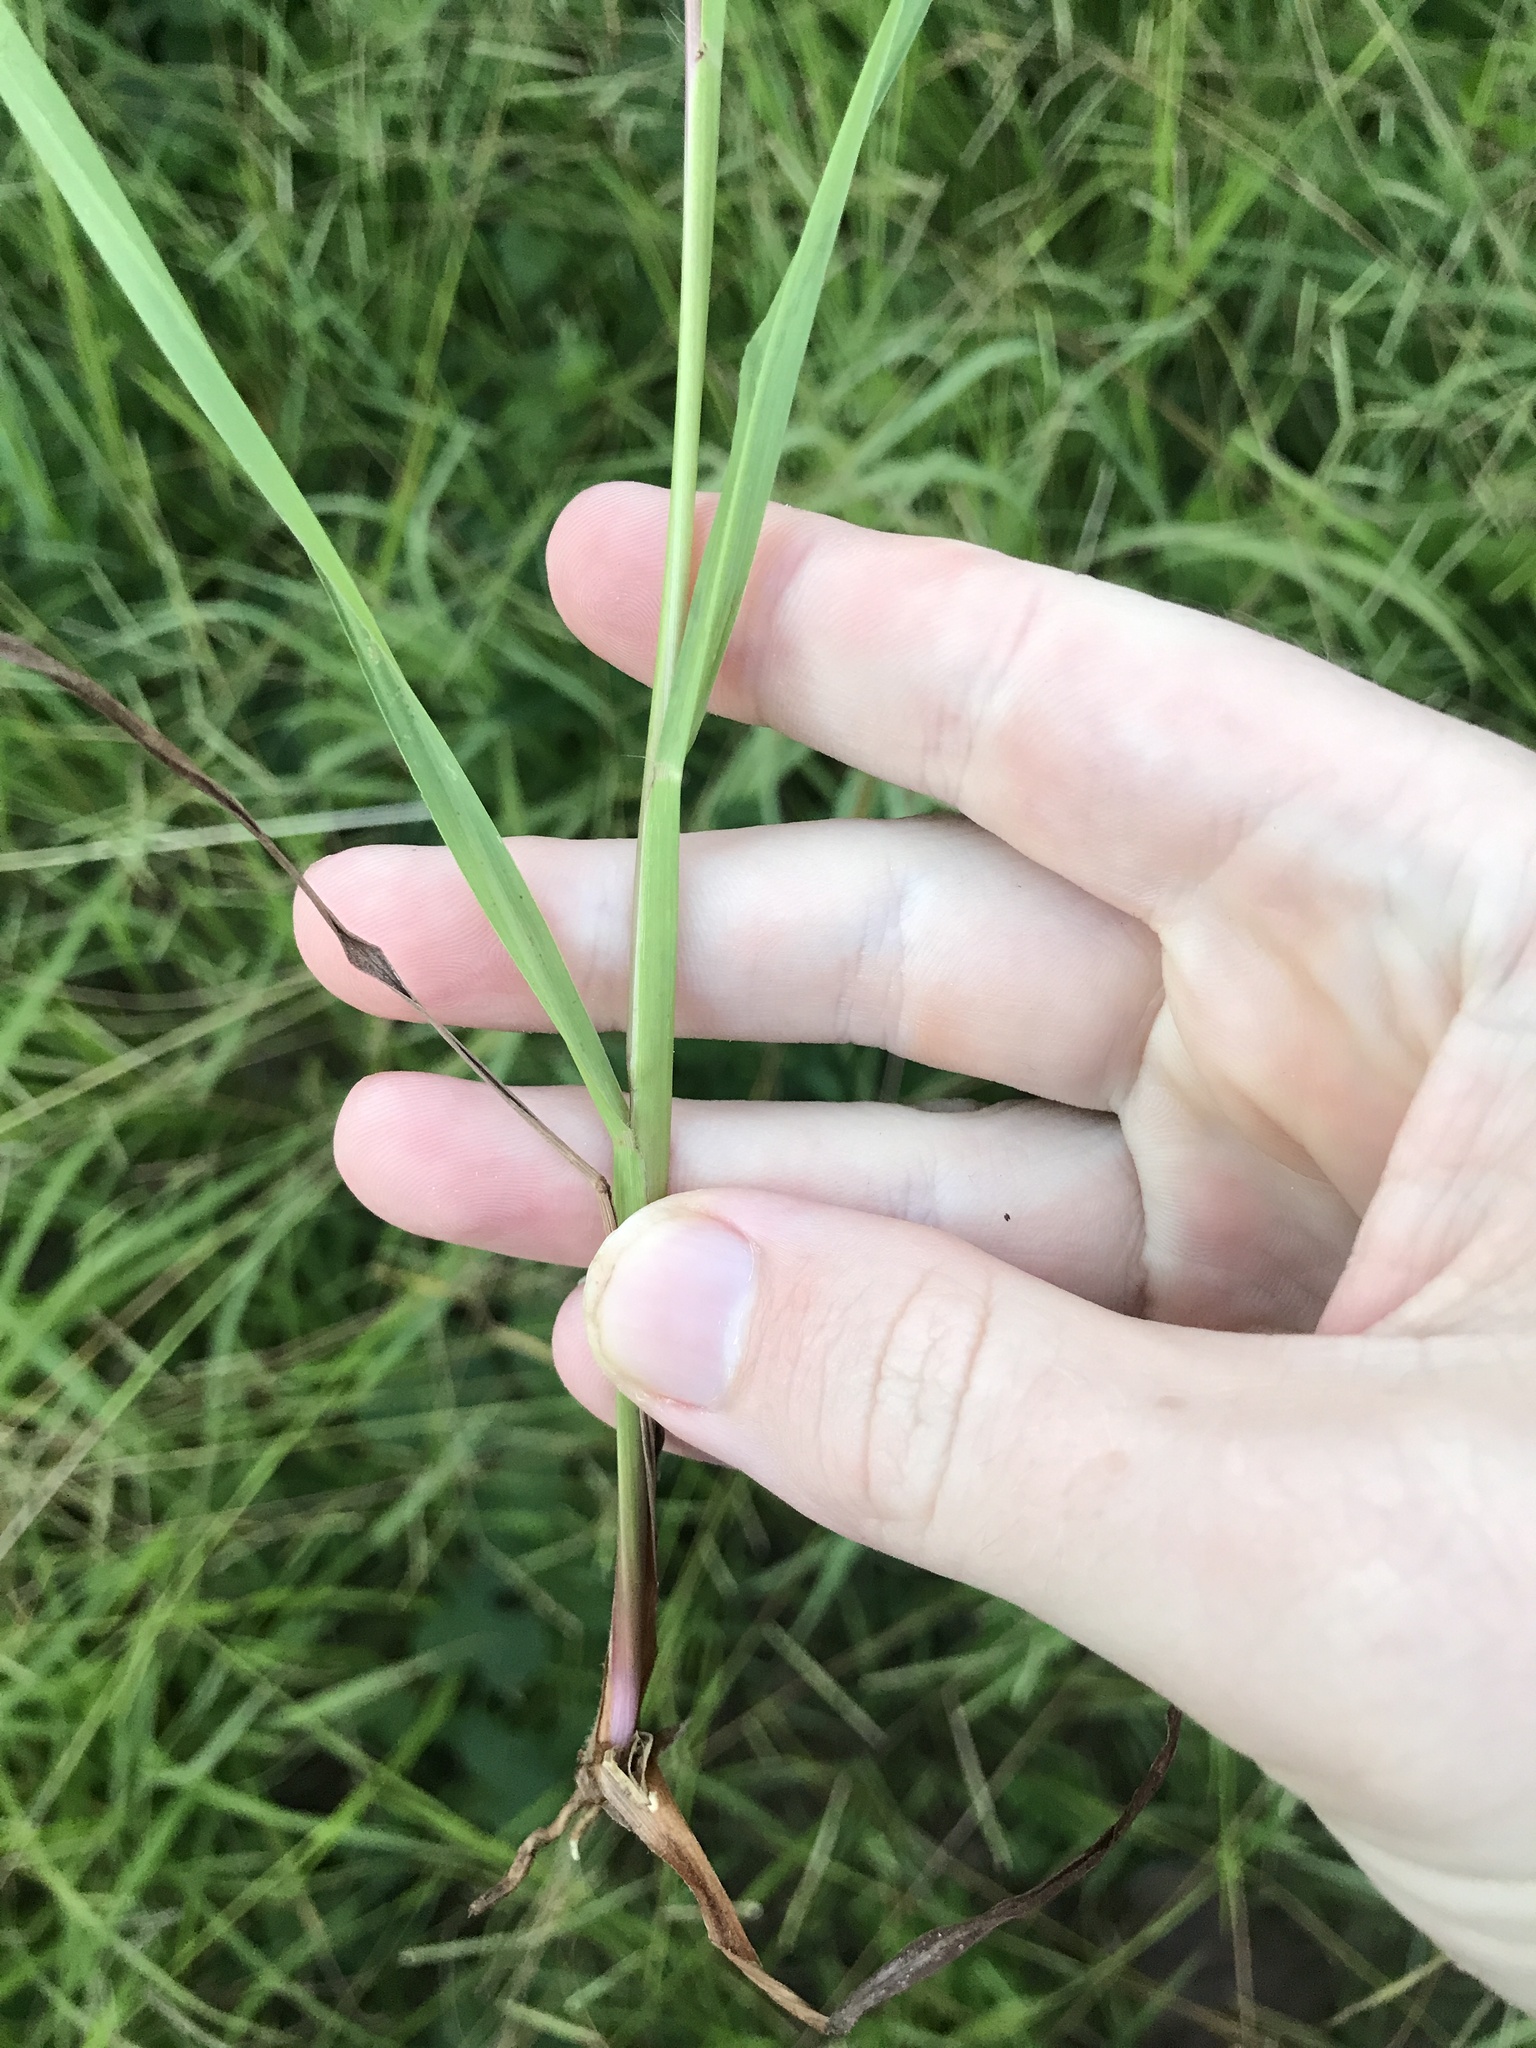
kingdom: Plantae
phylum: Tracheophyta
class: Liliopsida
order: Poales
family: Poaceae
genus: Paspalum
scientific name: Paspalum orbiculare
